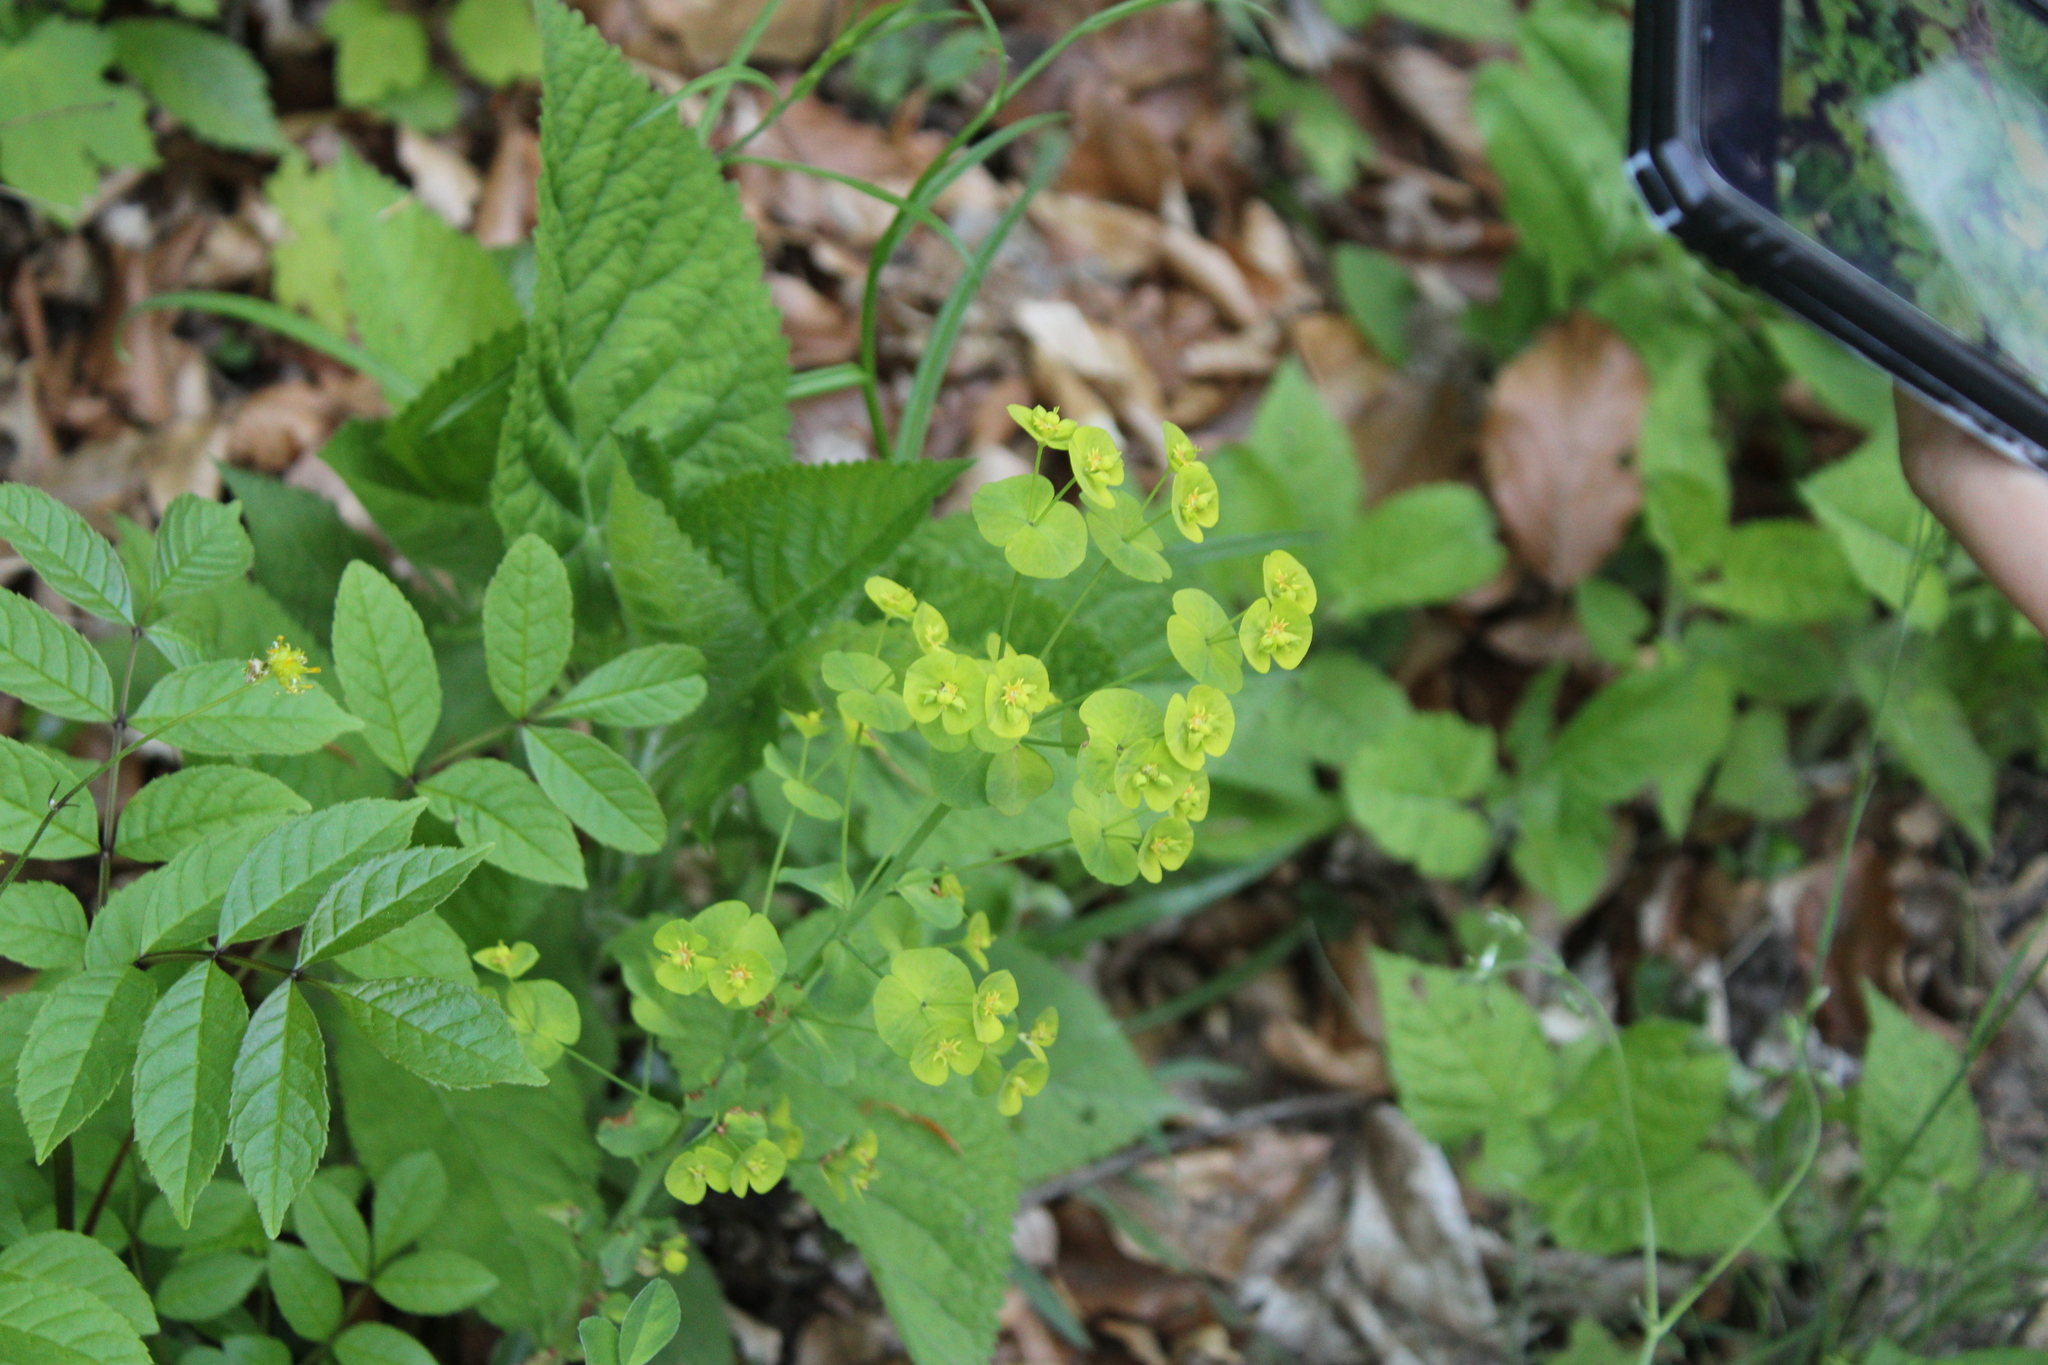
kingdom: Plantae
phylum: Tracheophyta
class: Magnoliopsida
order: Malpighiales
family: Euphorbiaceae
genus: Euphorbia
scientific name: Euphorbia amygdaloides
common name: Wood spurge
